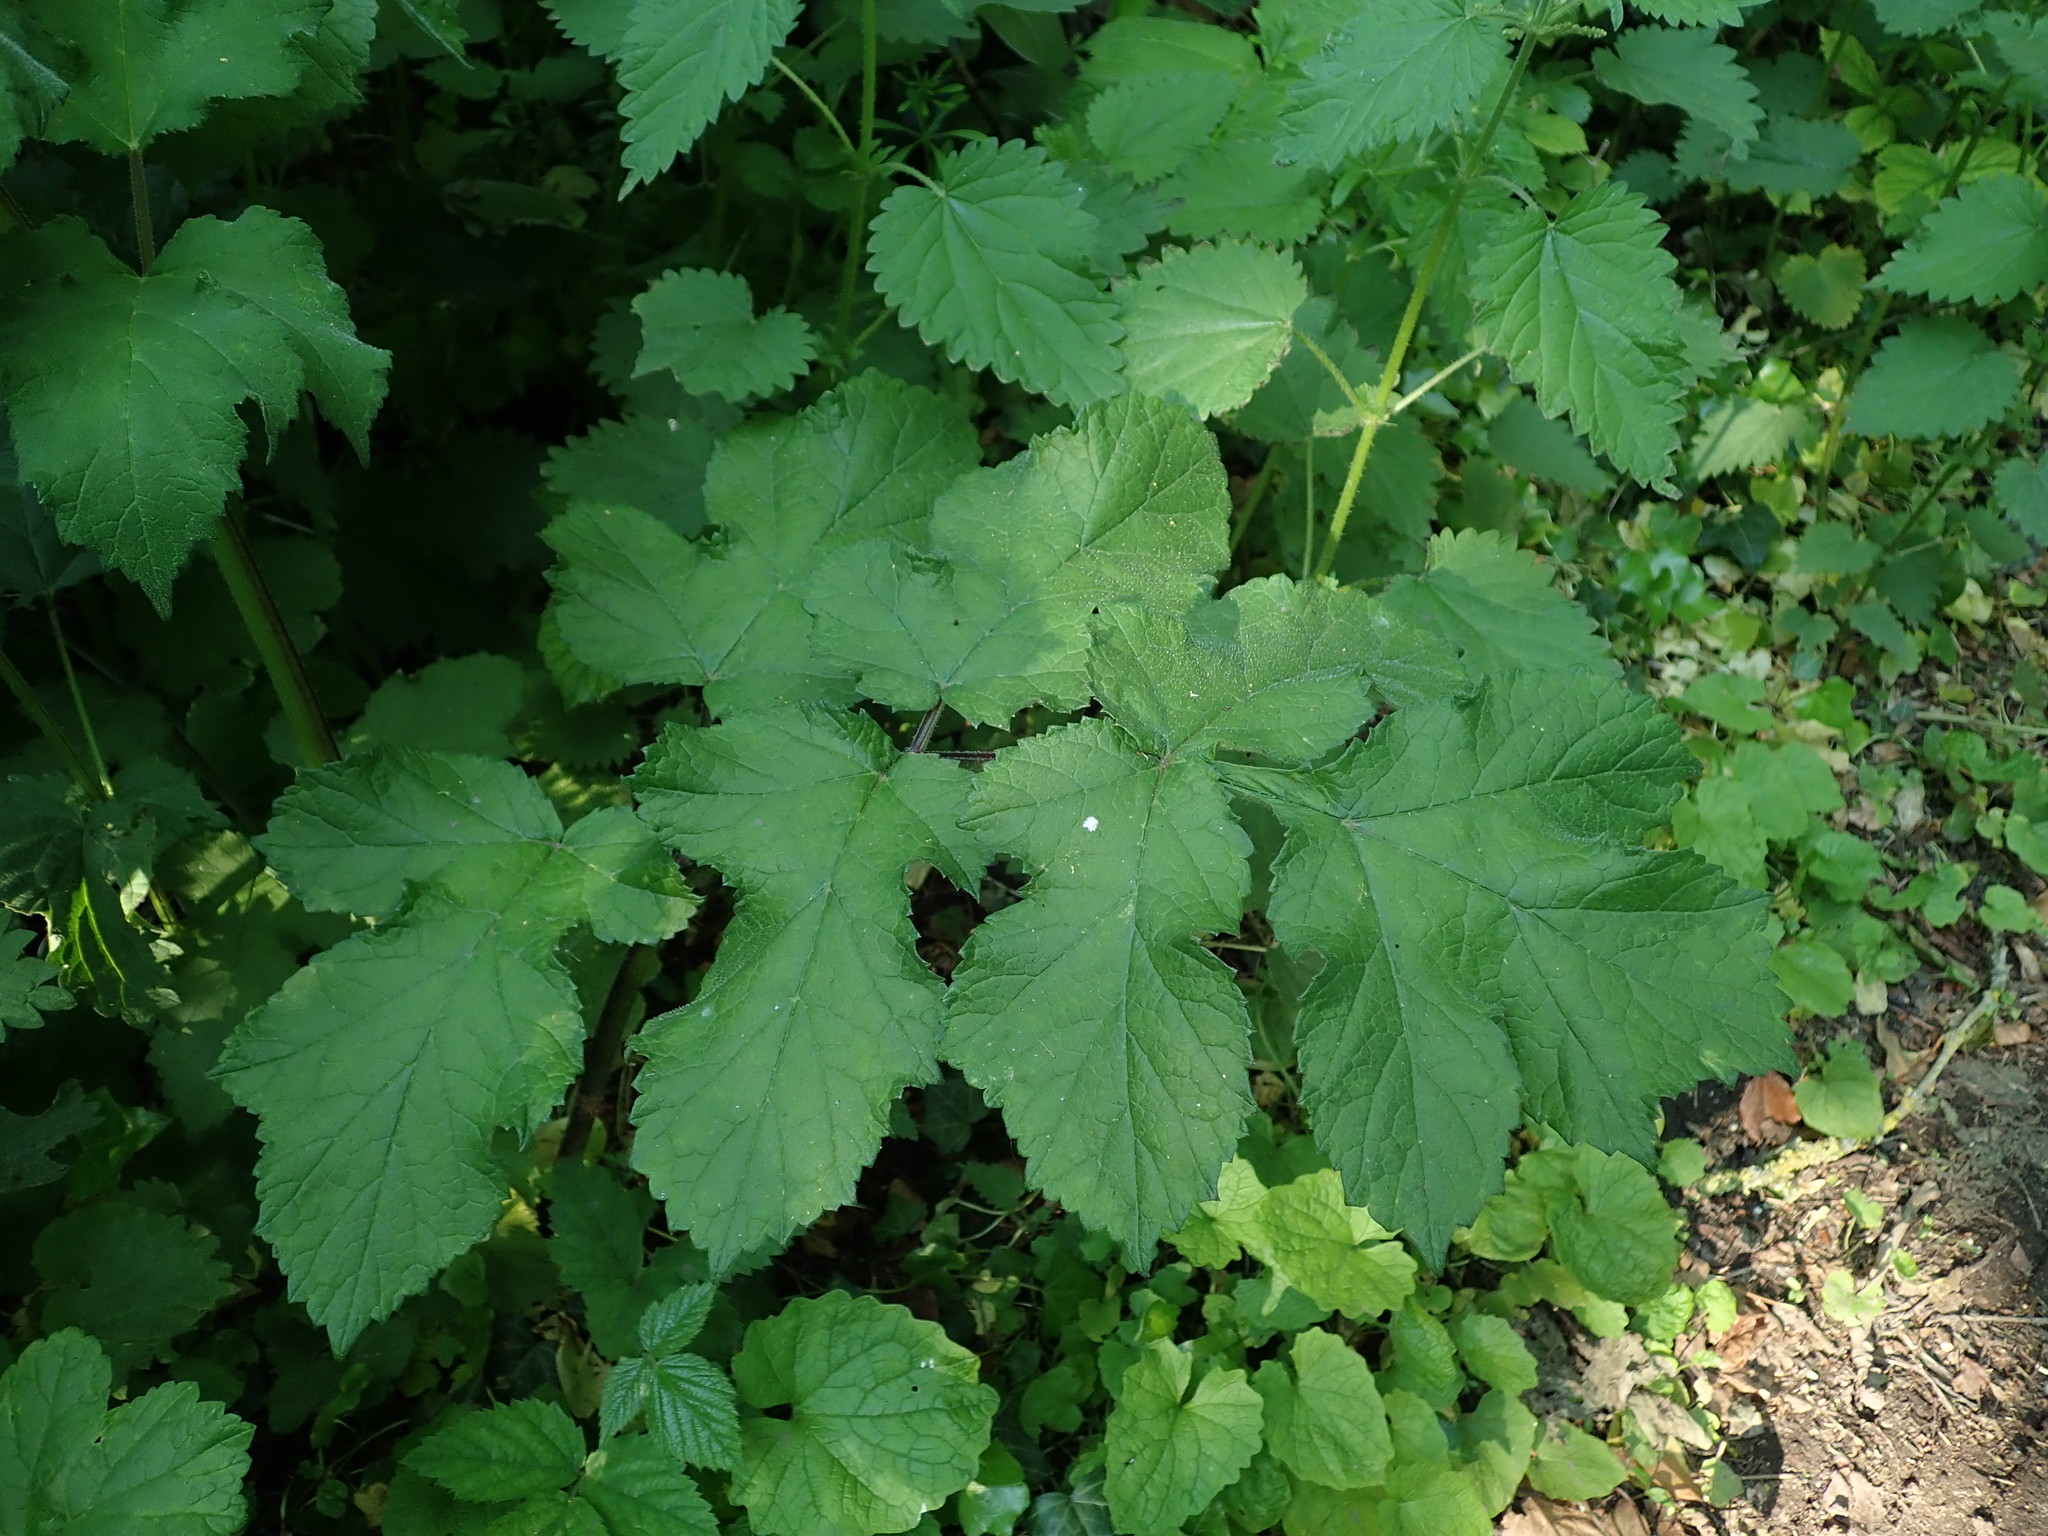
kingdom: Plantae
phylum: Tracheophyta
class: Magnoliopsida
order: Apiales
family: Apiaceae
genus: Heracleum
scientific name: Heracleum sphondylium
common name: Hogweed
